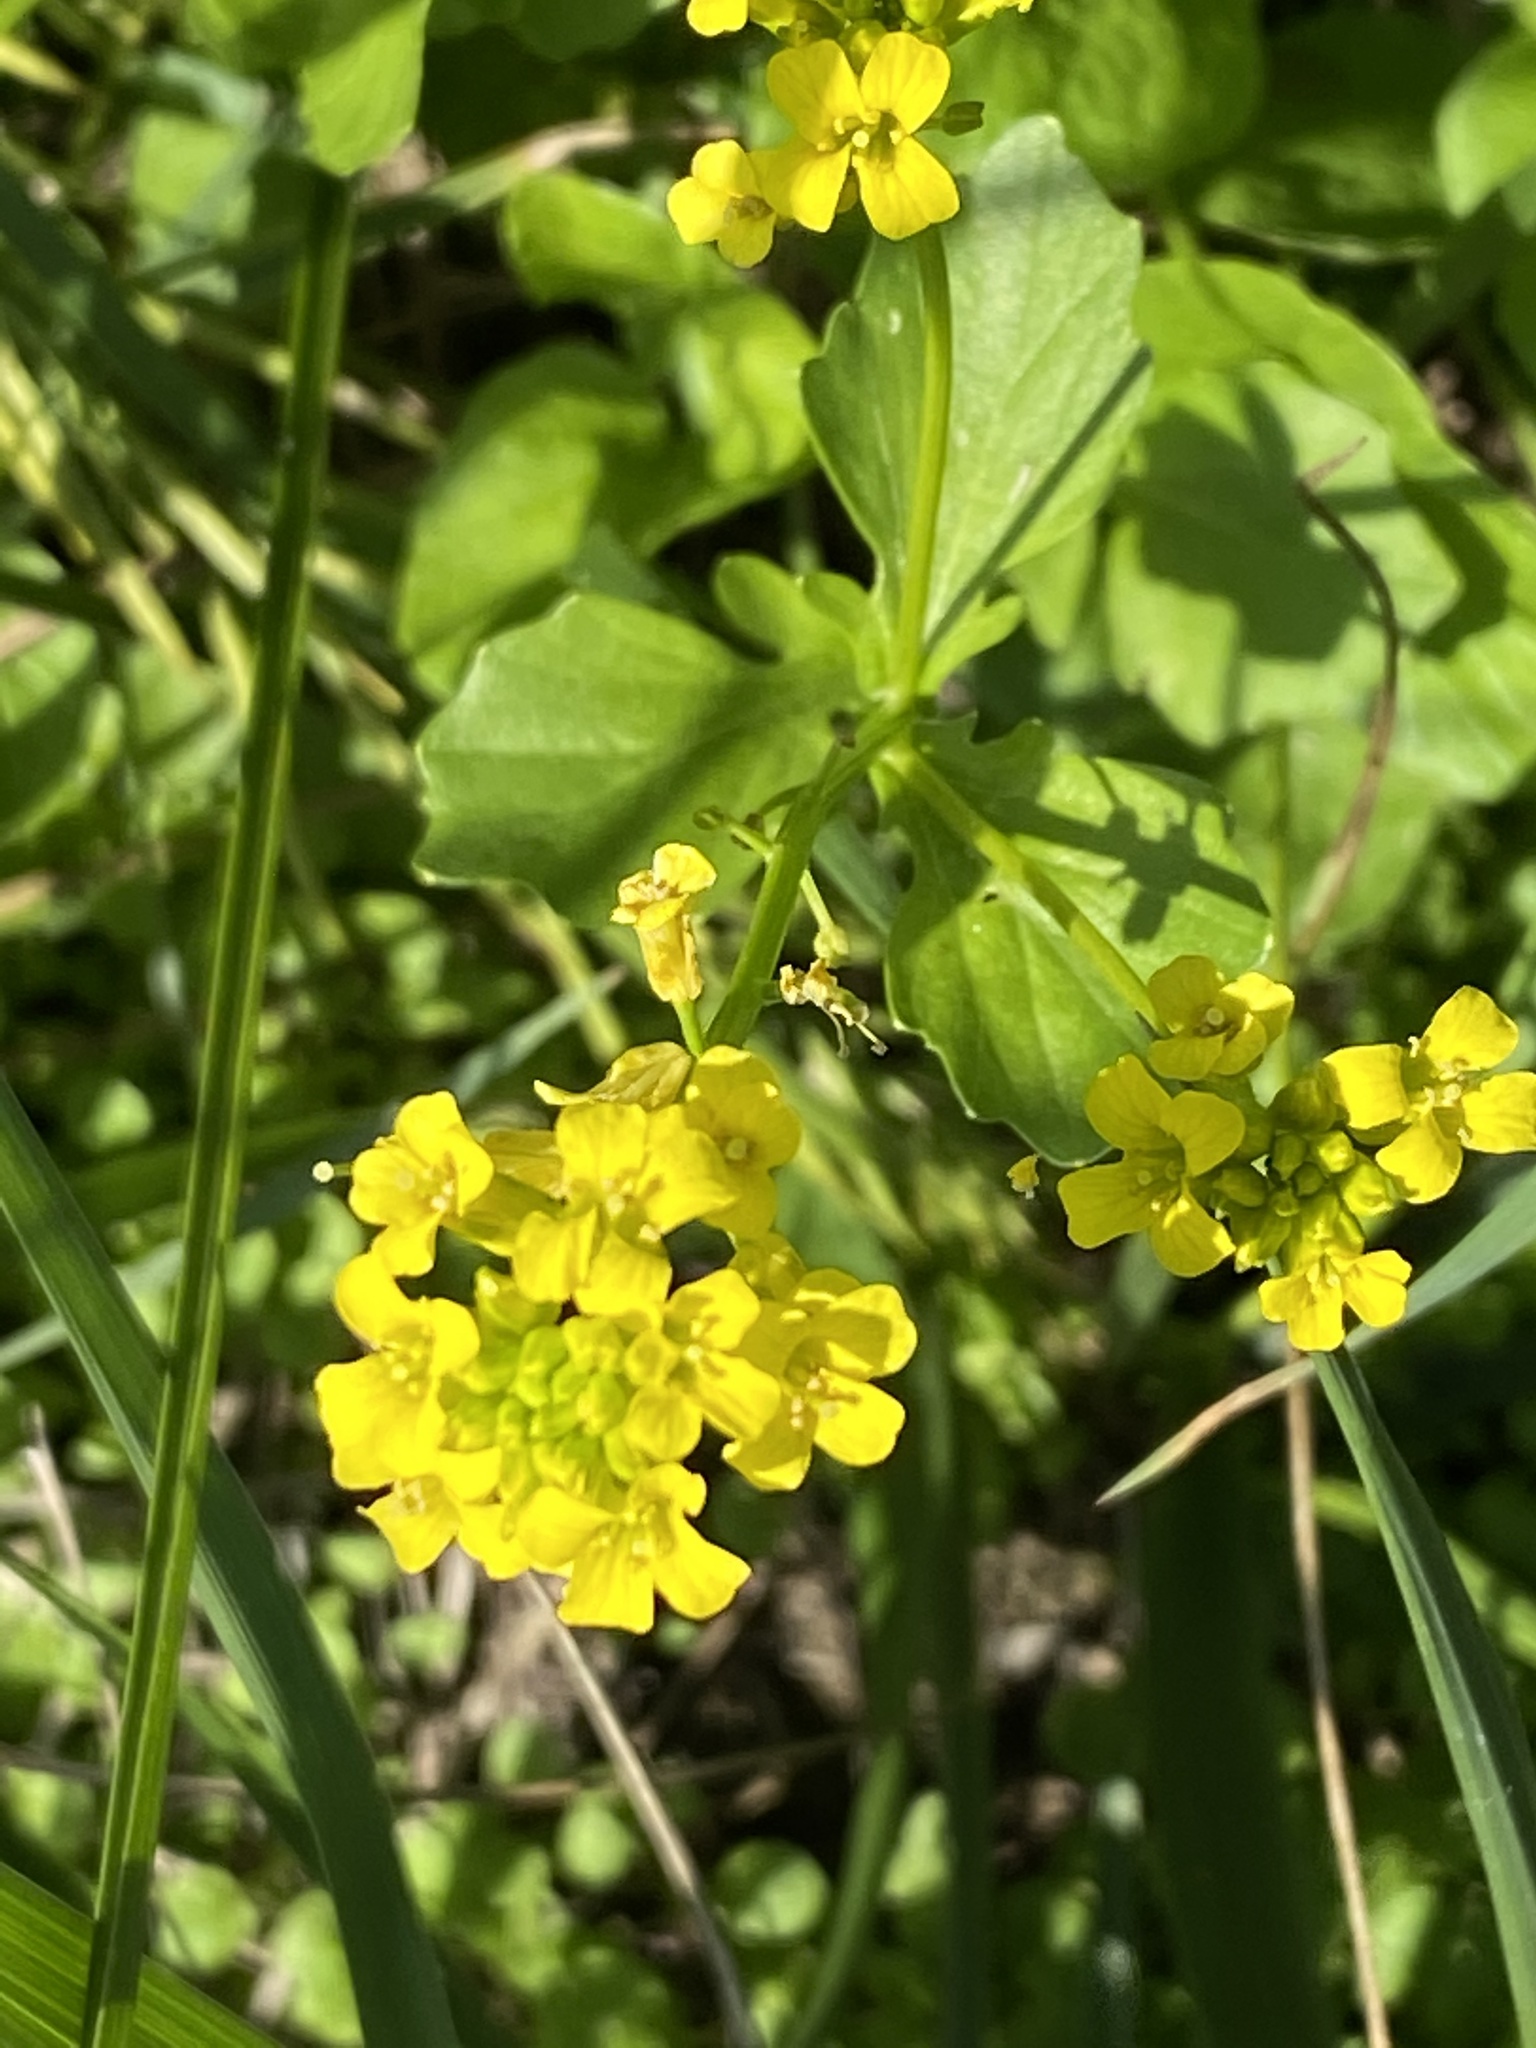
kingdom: Plantae
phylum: Tracheophyta
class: Magnoliopsida
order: Brassicales
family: Brassicaceae
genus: Barbarea
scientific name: Barbarea vulgaris
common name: Cressy-greens
